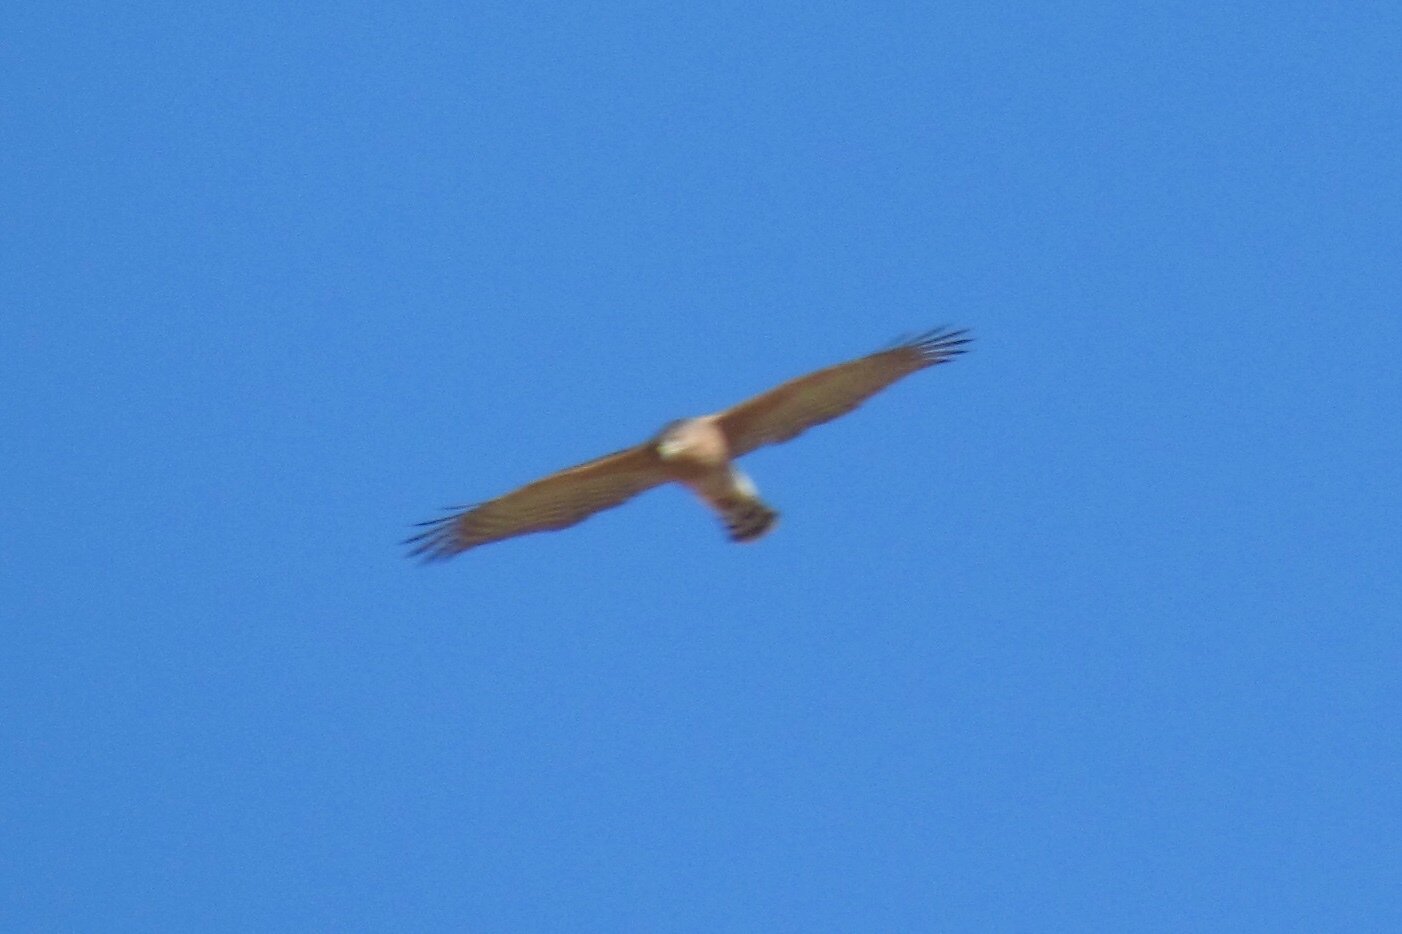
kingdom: Animalia
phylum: Chordata
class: Aves
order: Accipitriformes
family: Accipitridae
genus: Accipiter
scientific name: Accipiter cooperii
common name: Cooper's hawk
